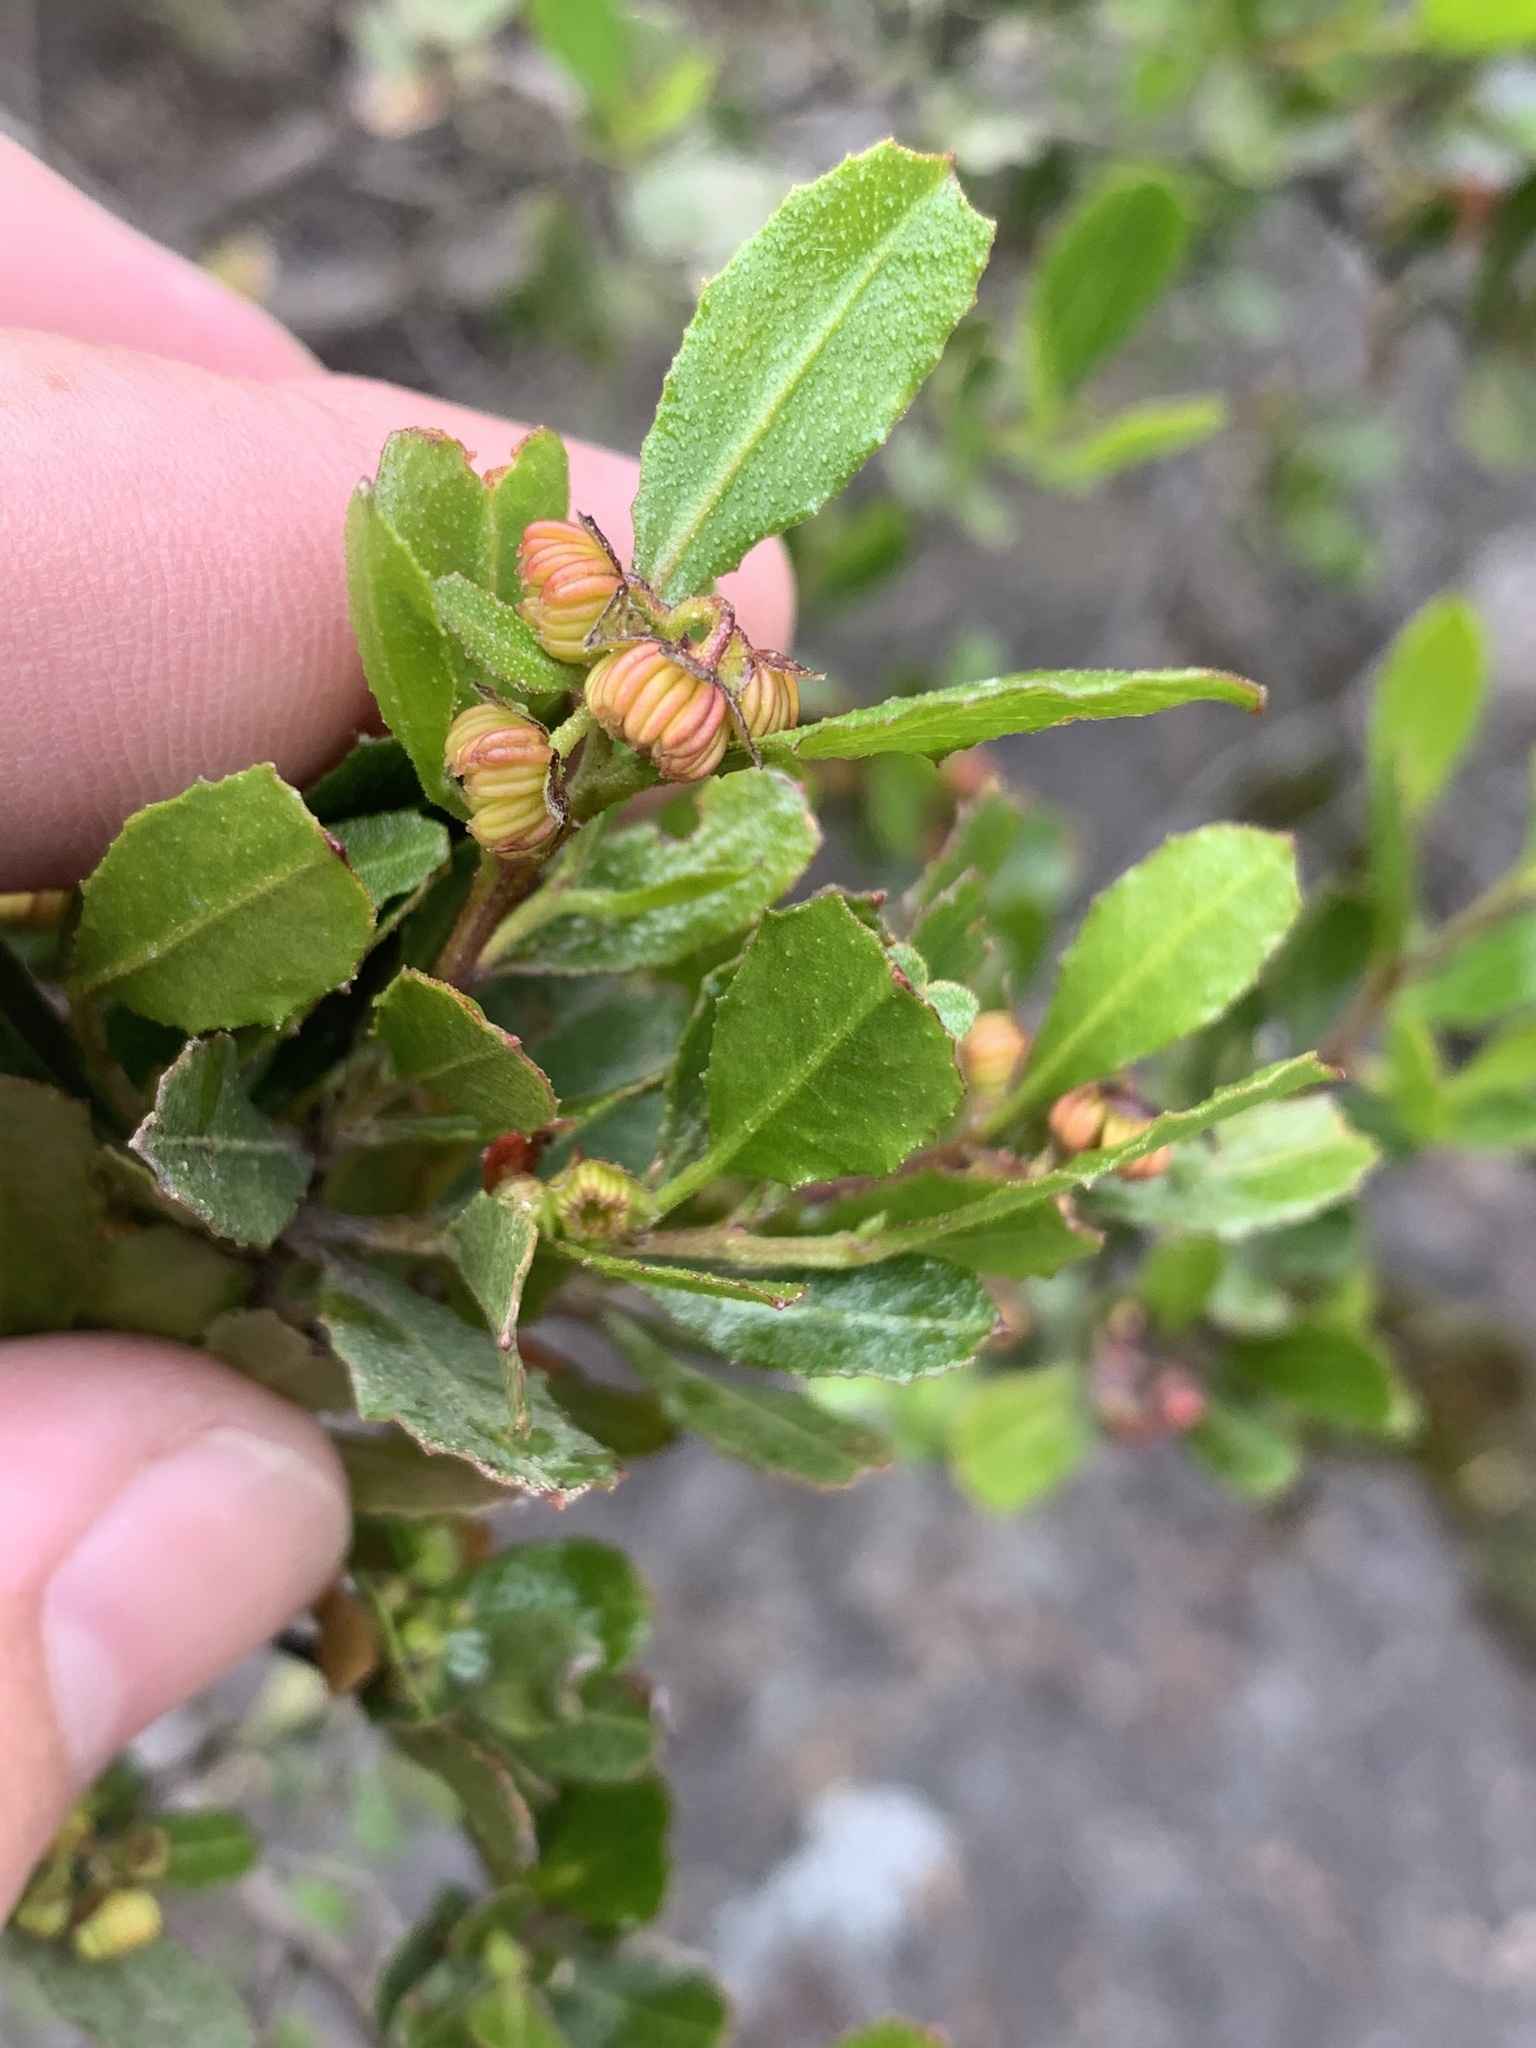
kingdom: Plantae
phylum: Tracheophyta
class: Magnoliopsida
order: Sapindales
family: Sapindaceae
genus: Dodonaea
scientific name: Dodonaea viscosa
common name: Hopbush
